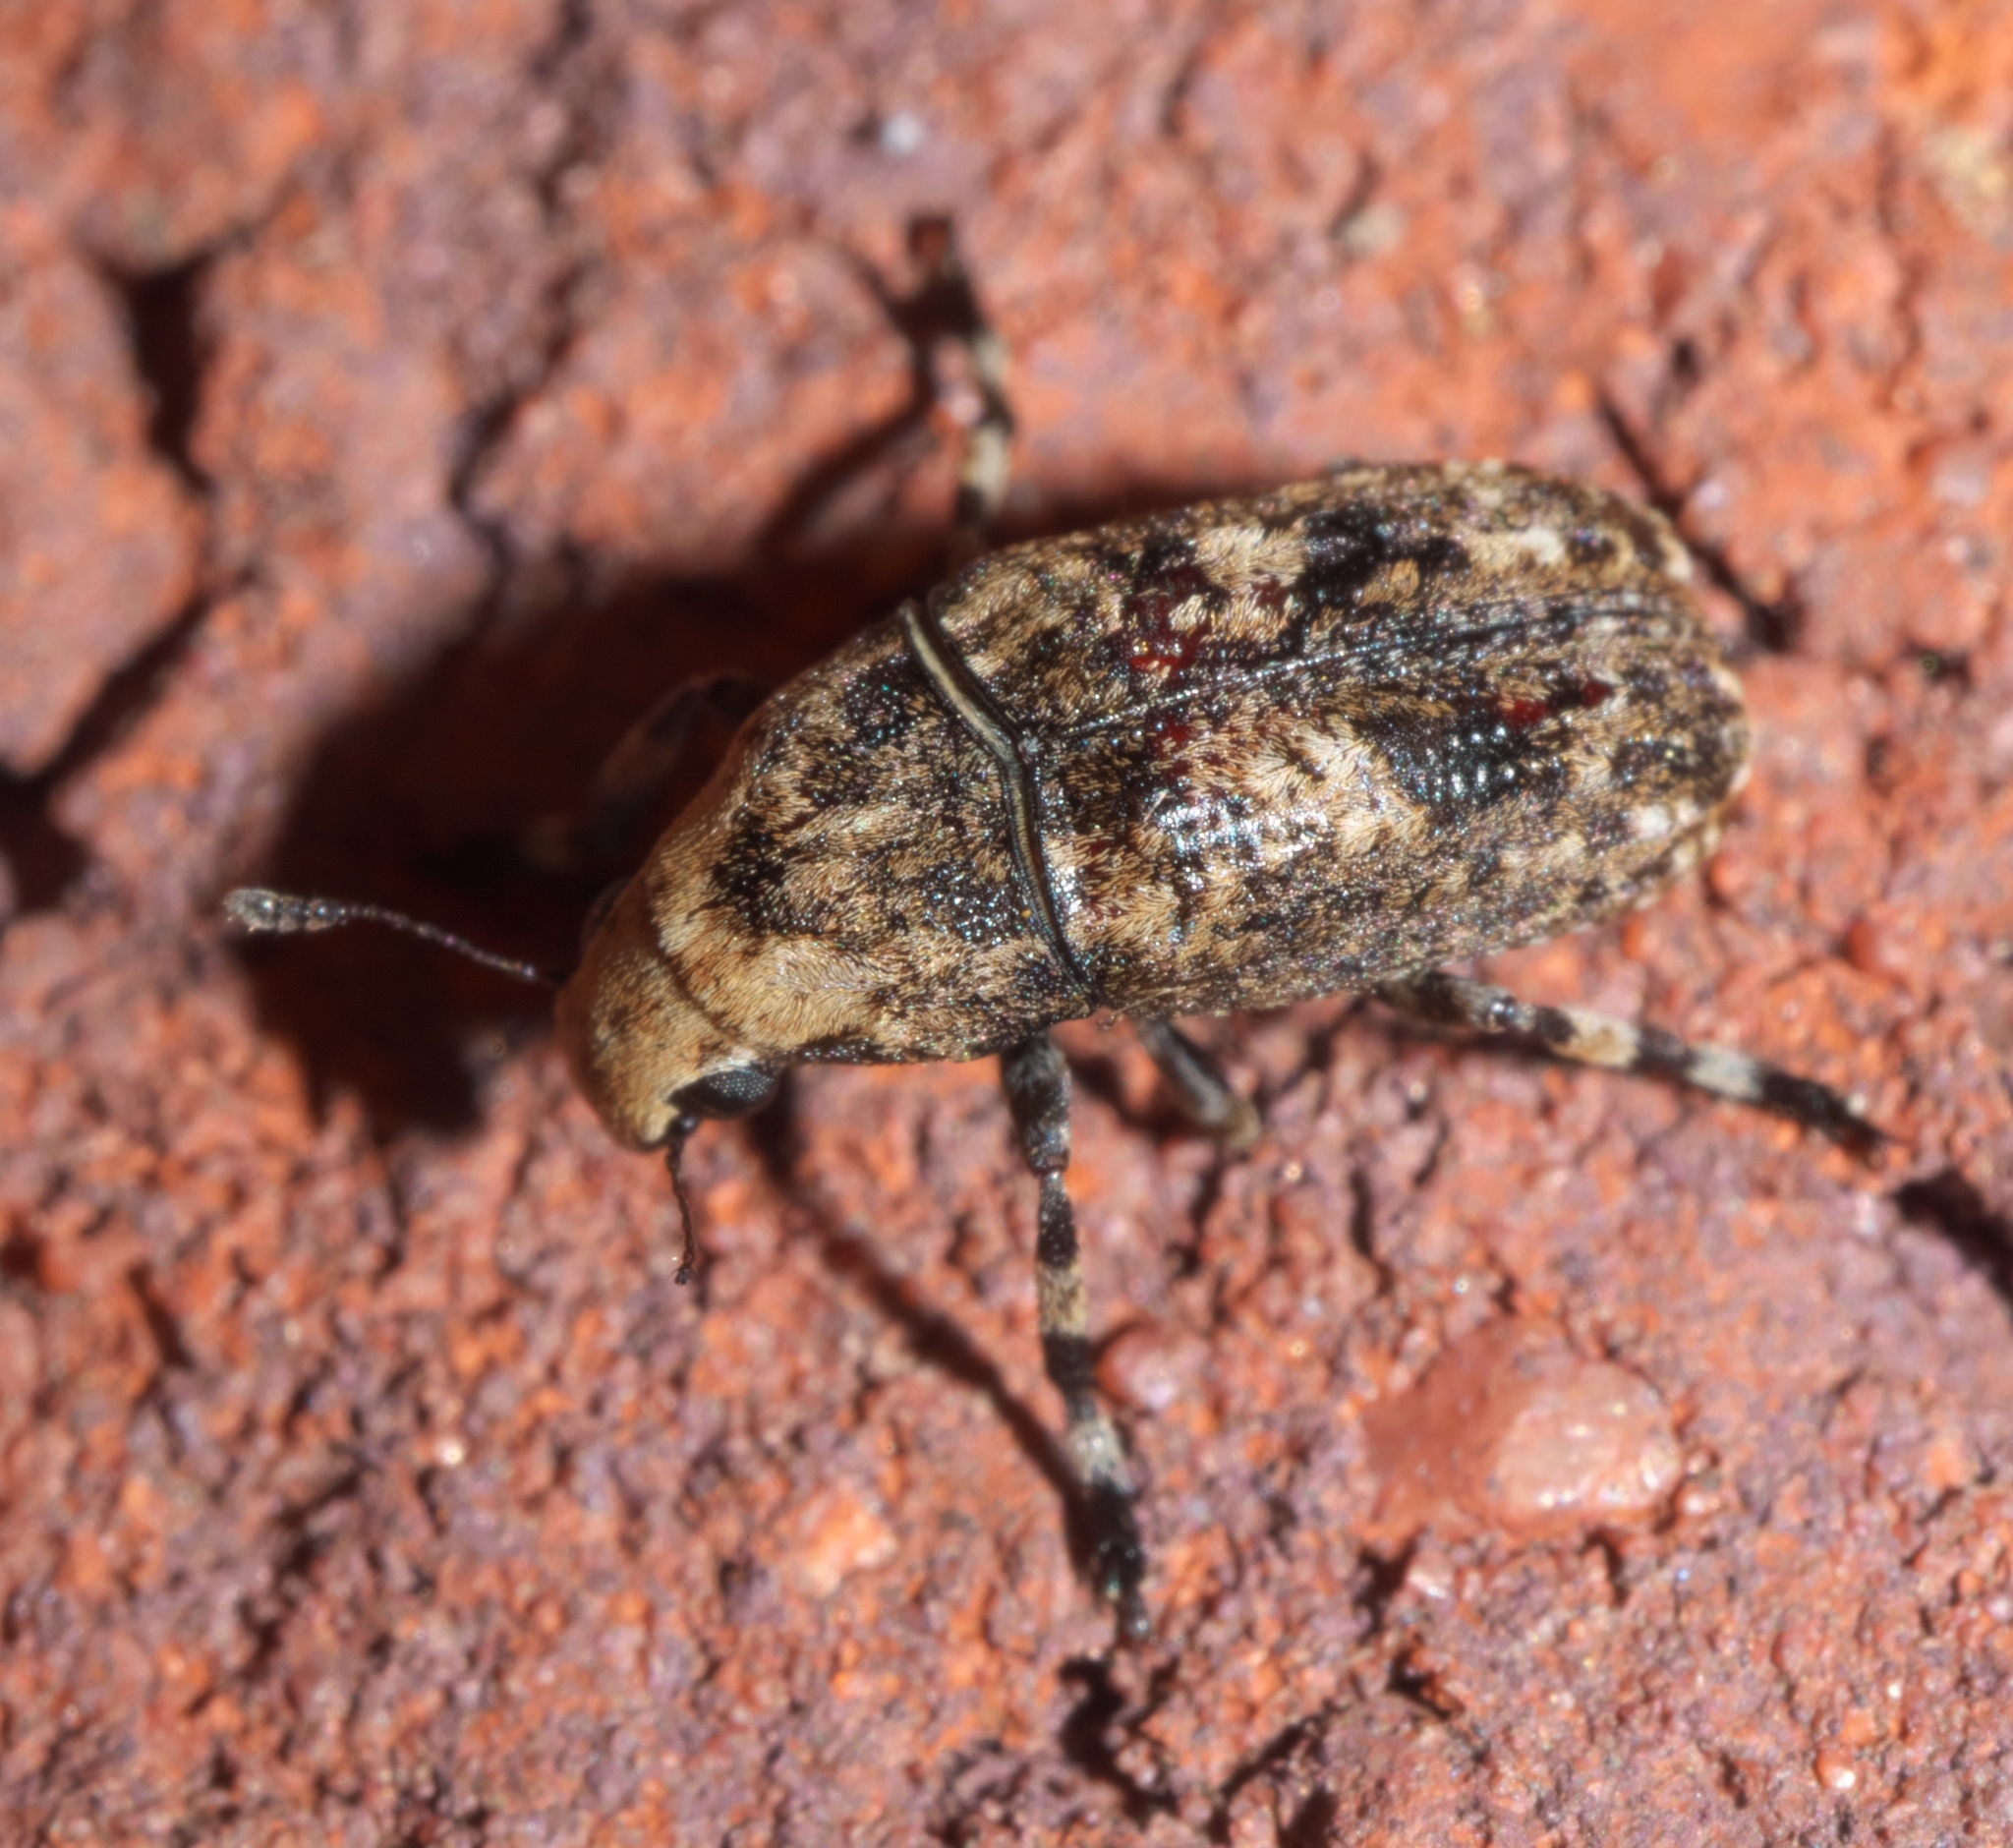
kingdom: Animalia
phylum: Arthropoda
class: Insecta
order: Coleoptera
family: Anthribidae
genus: Euparius
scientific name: Euparius marmoreus
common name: Marbled fungus weevil
